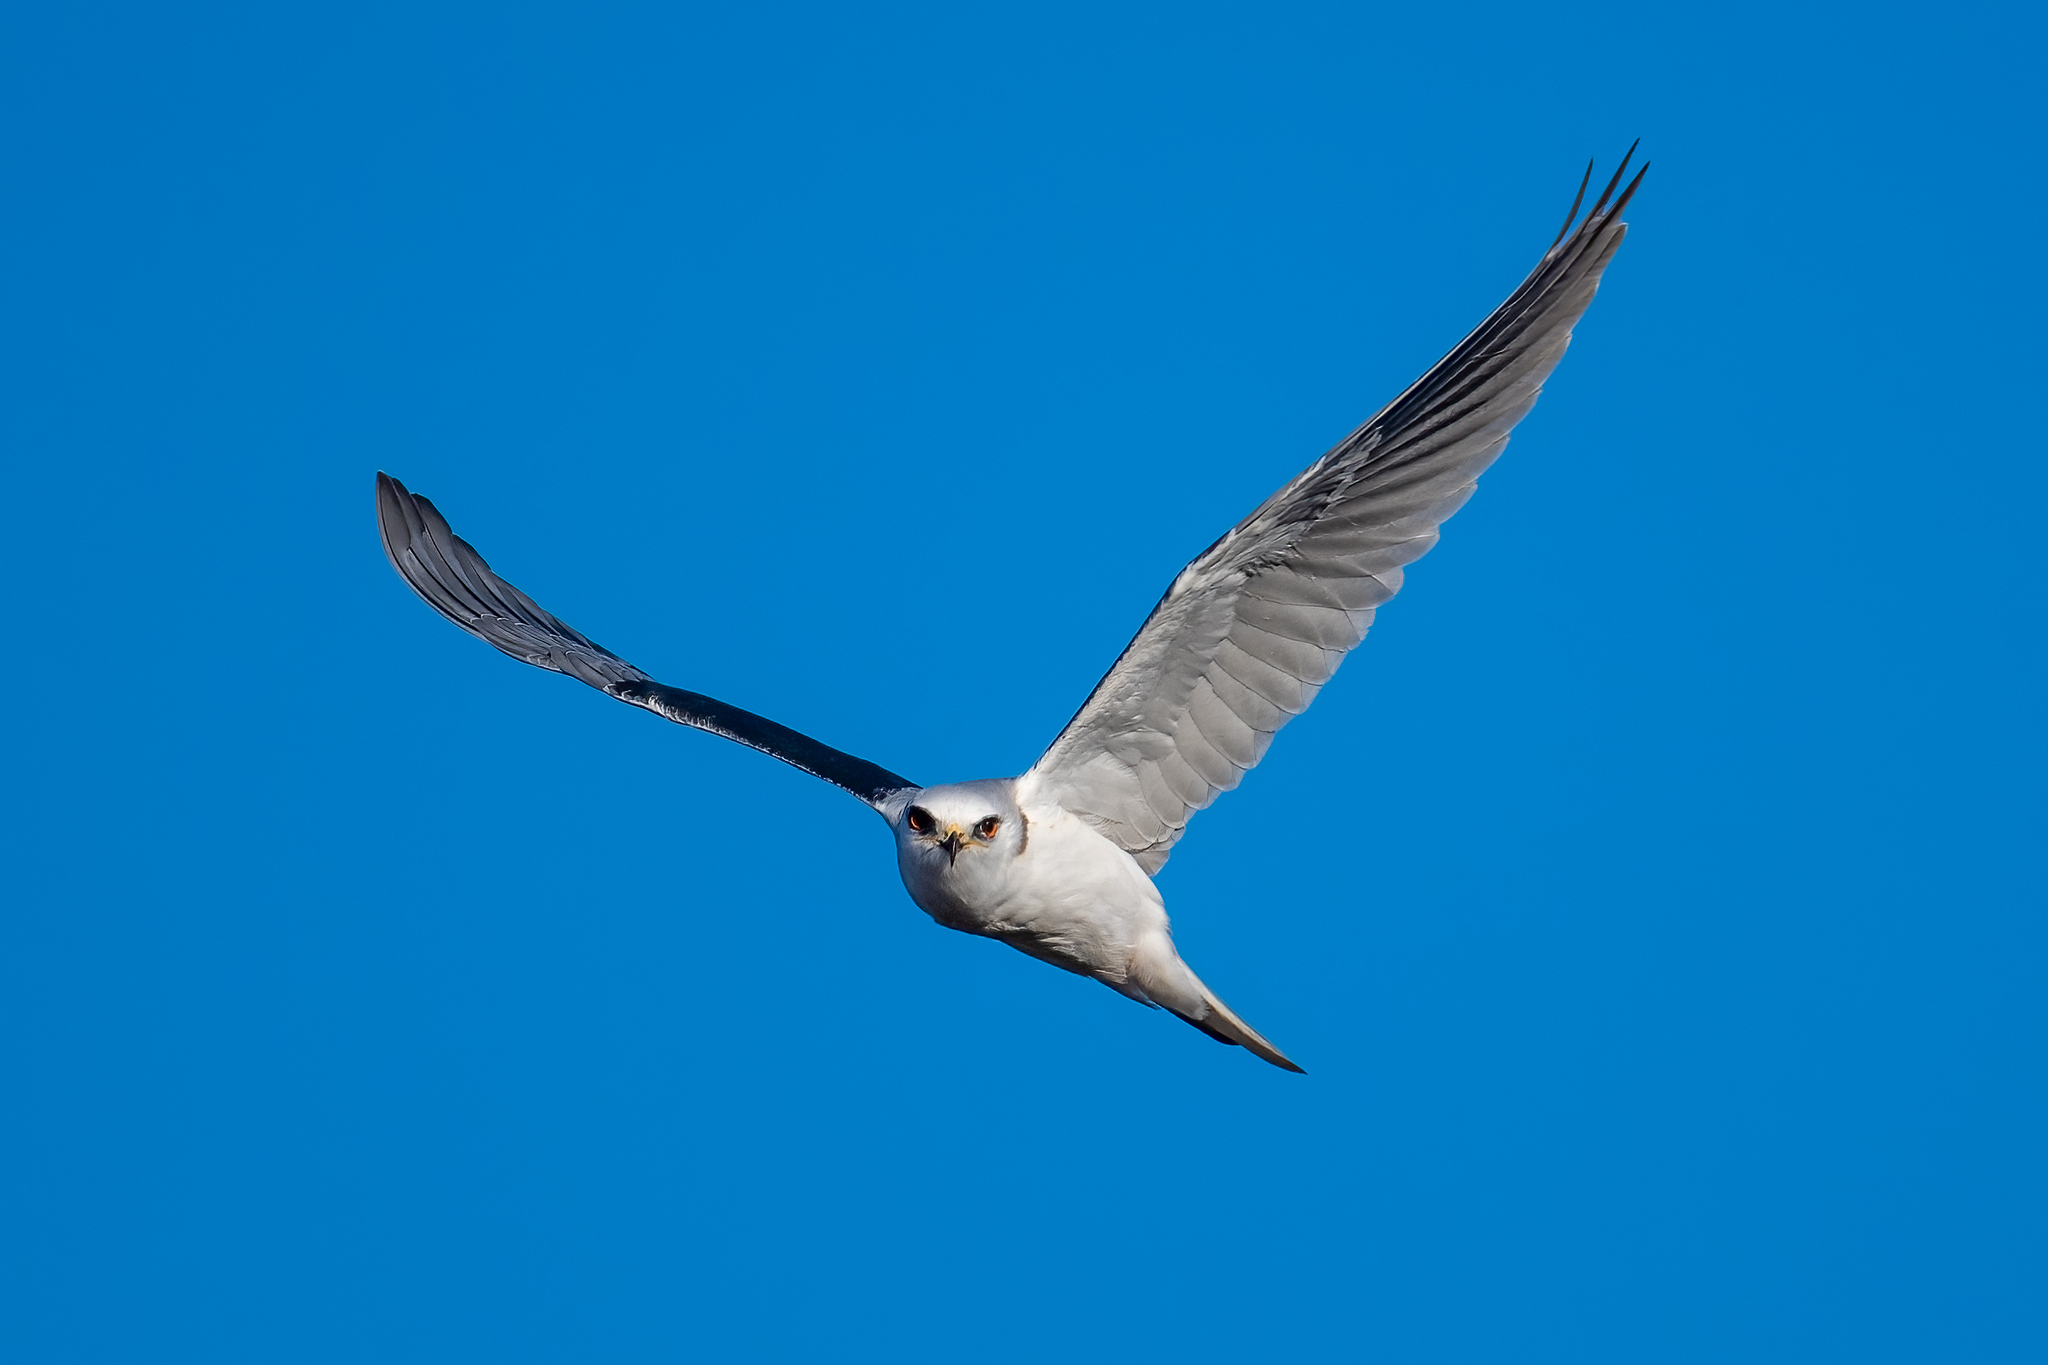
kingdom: Animalia
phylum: Chordata
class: Aves
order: Accipitriformes
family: Accipitridae
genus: Elanus
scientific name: Elanus leucurus
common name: White-tailed kite
